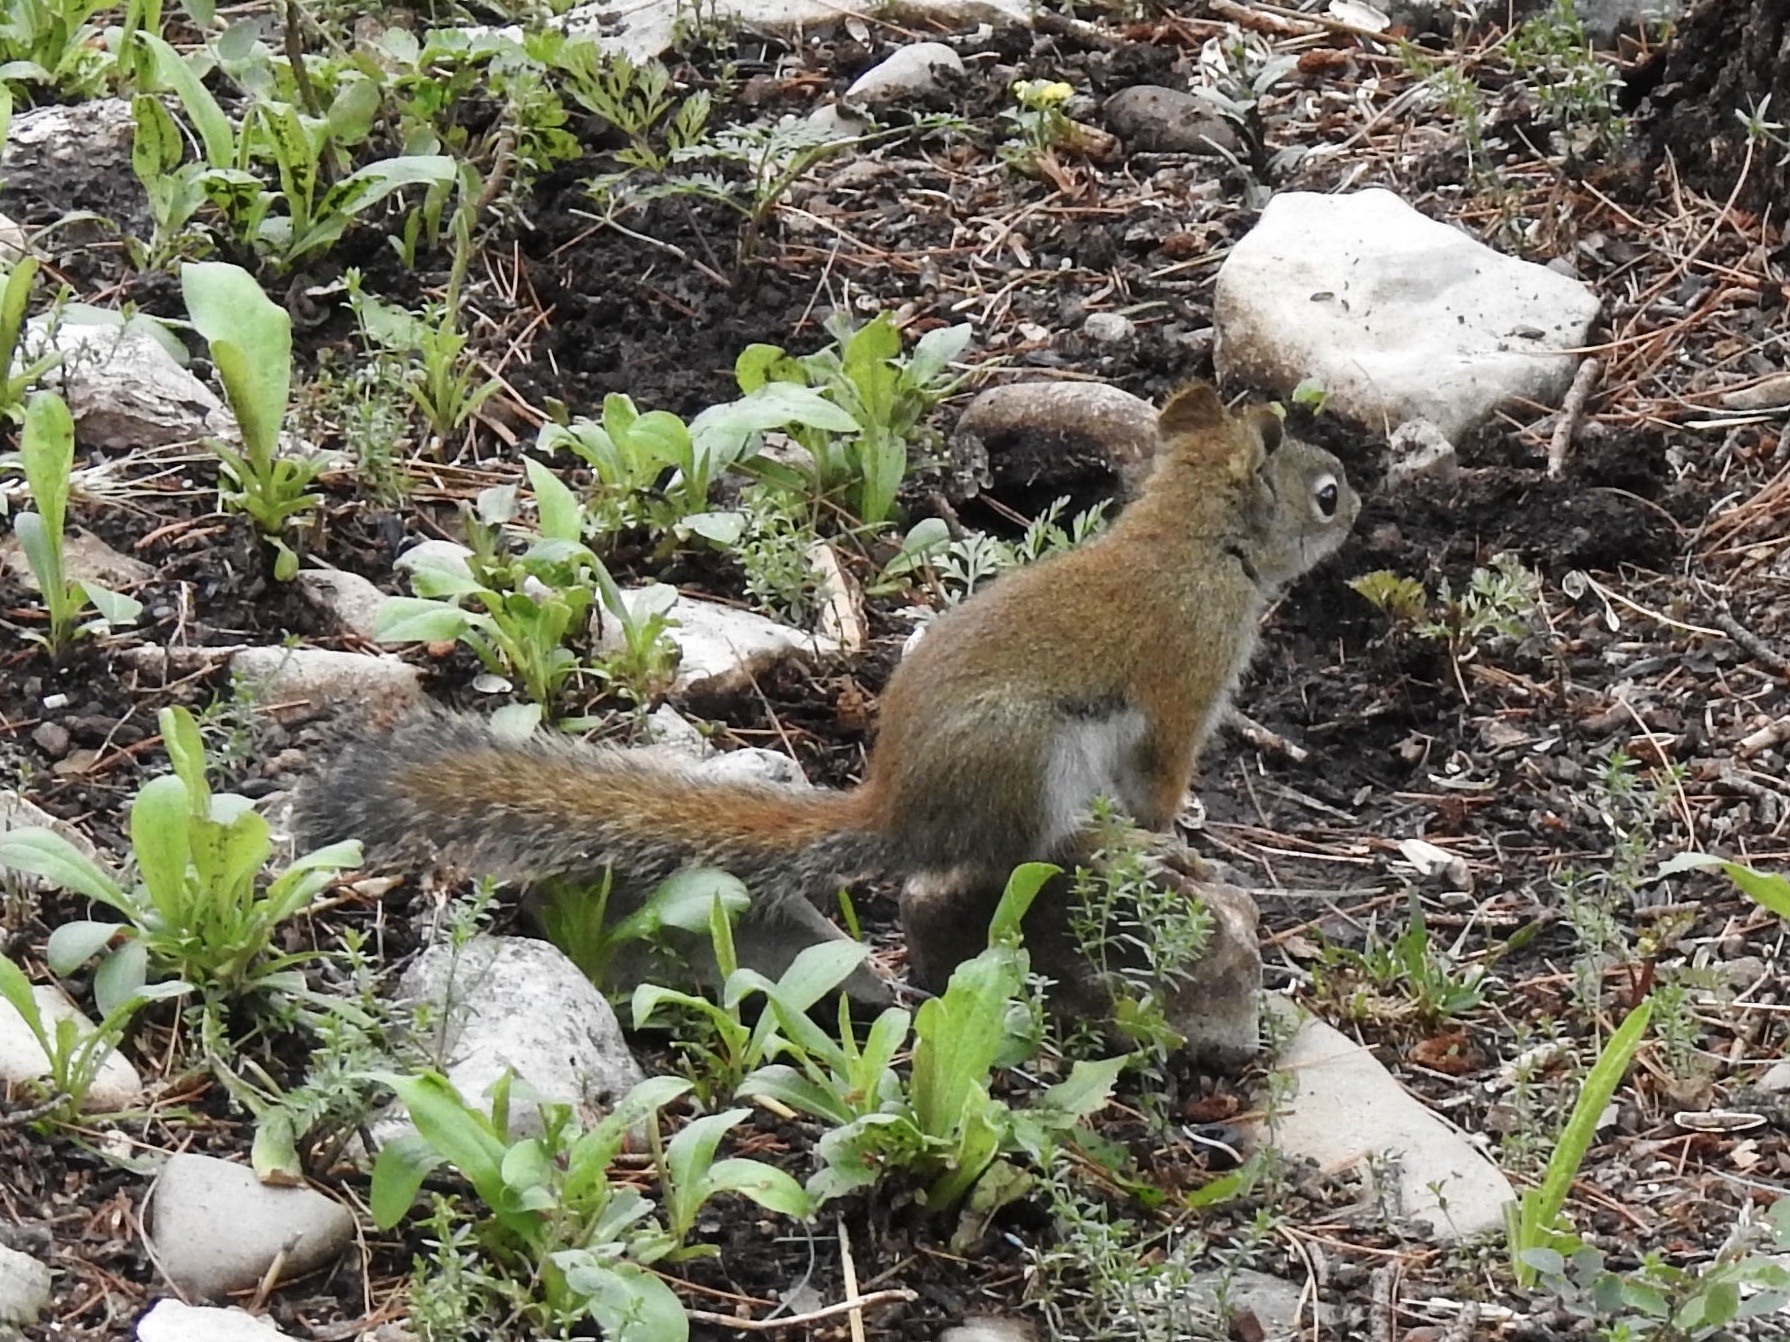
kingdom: Animalia
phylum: Chordata
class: Mammalia
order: Rodentia
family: Sciuridae
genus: Tamiasciurus
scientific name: Tamiasciurus hudsonicus
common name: Red squirrel
